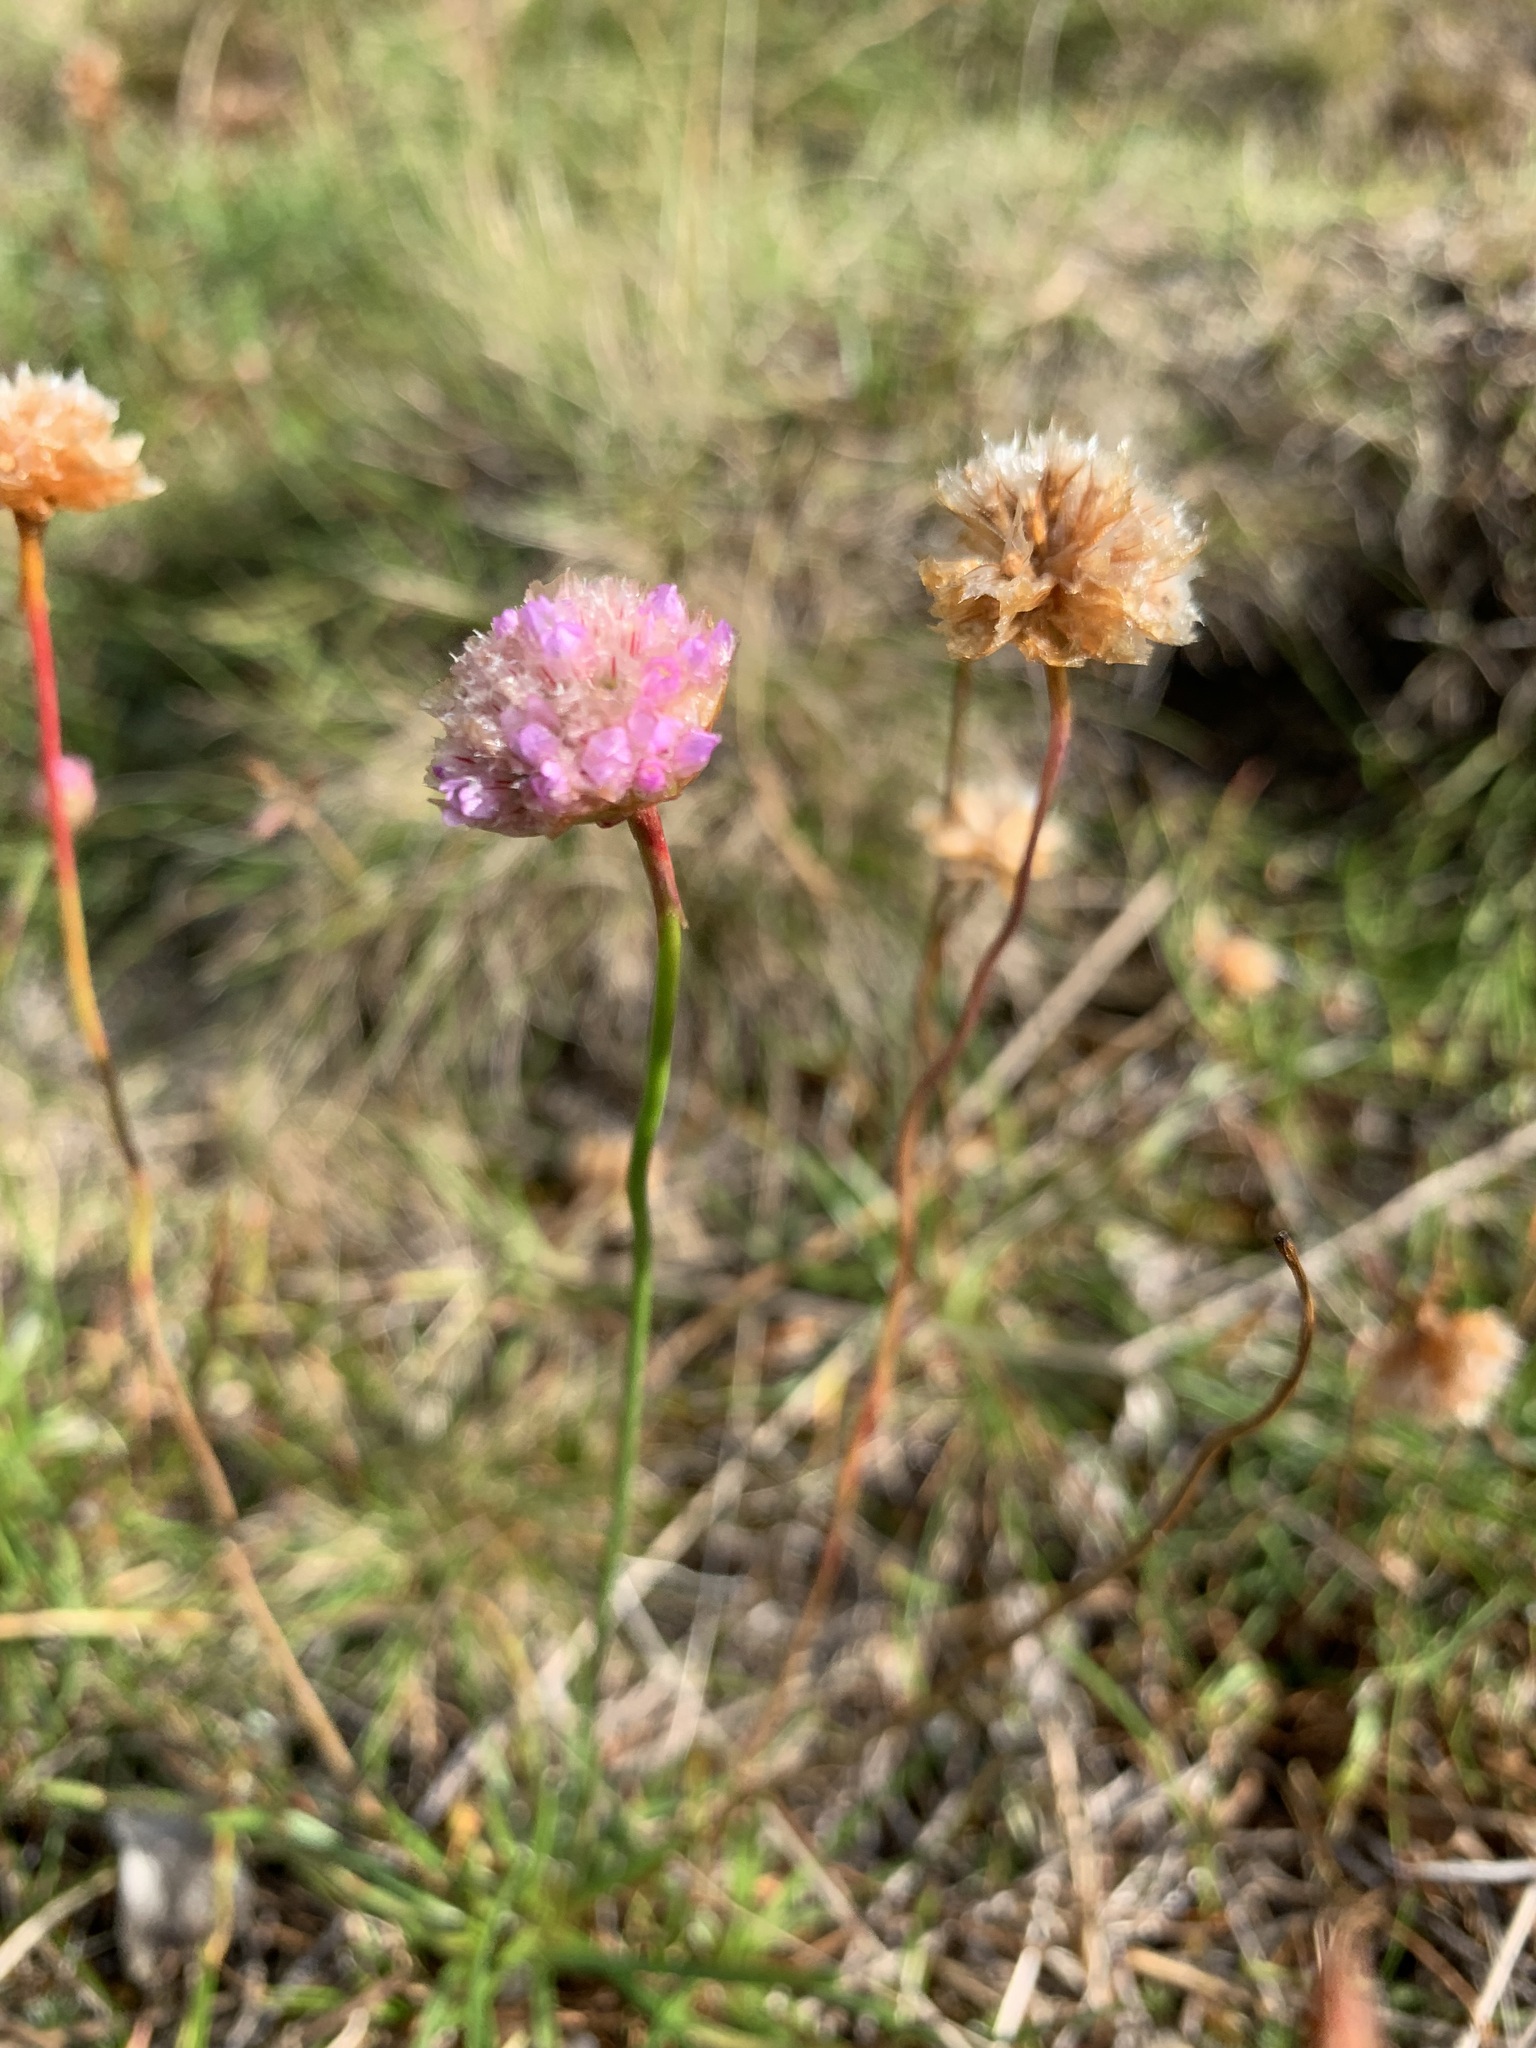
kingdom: Plantae
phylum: Tracheophyta
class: Magnoliopsida
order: Caryophyllales
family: Plumbaginaceae
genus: Armeria
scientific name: Armeria maritima
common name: Thrift
